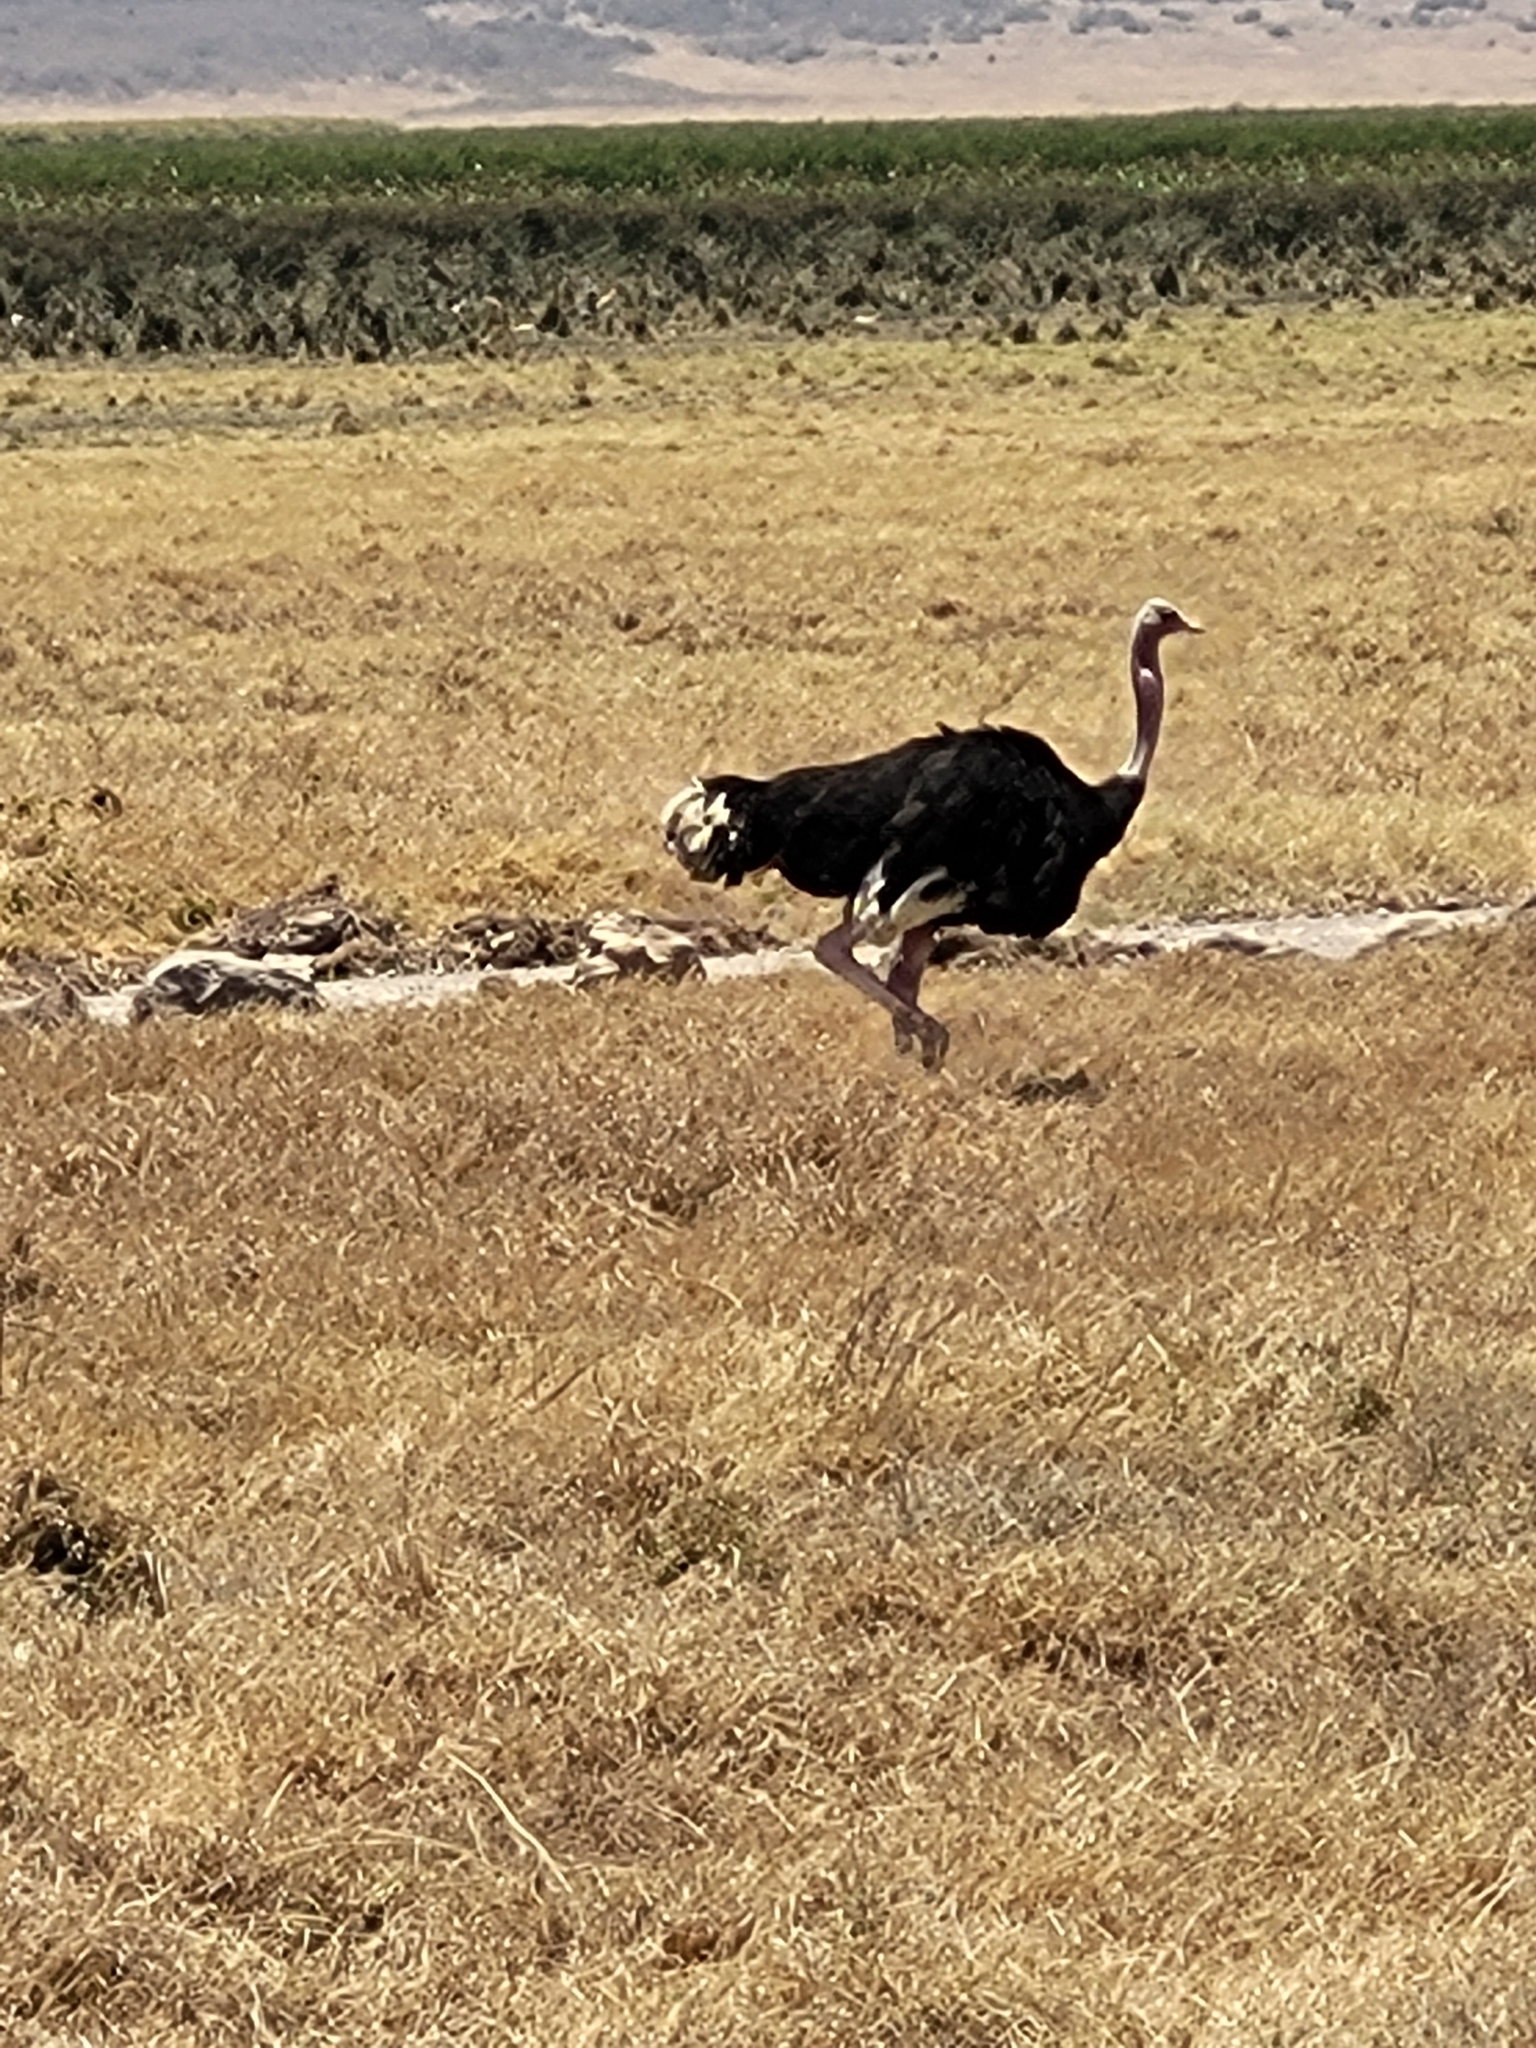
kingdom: Animalia
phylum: Chordata
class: Aves
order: Struthioniformes
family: Struthionidae
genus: Struthio
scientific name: Struthio camelus
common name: Common ostrich
